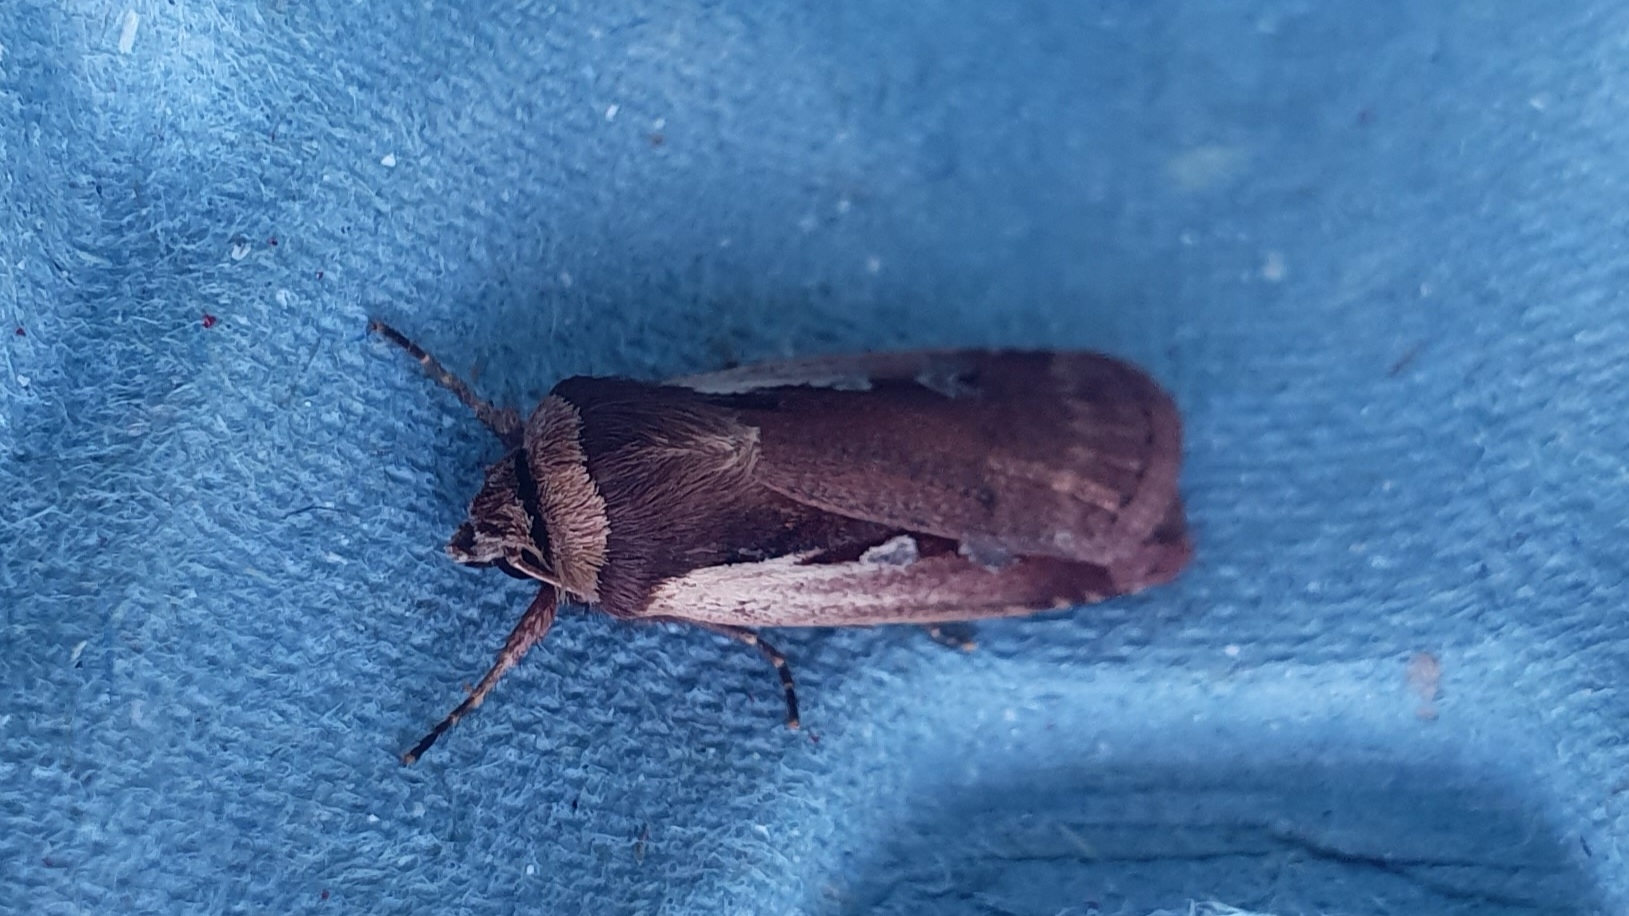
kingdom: Animalia
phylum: Arthropoda
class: Insecta
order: Lepidoptera
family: Noctuidae
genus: Ochropleura
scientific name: Ochropleura plecta
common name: Flame shoulder
